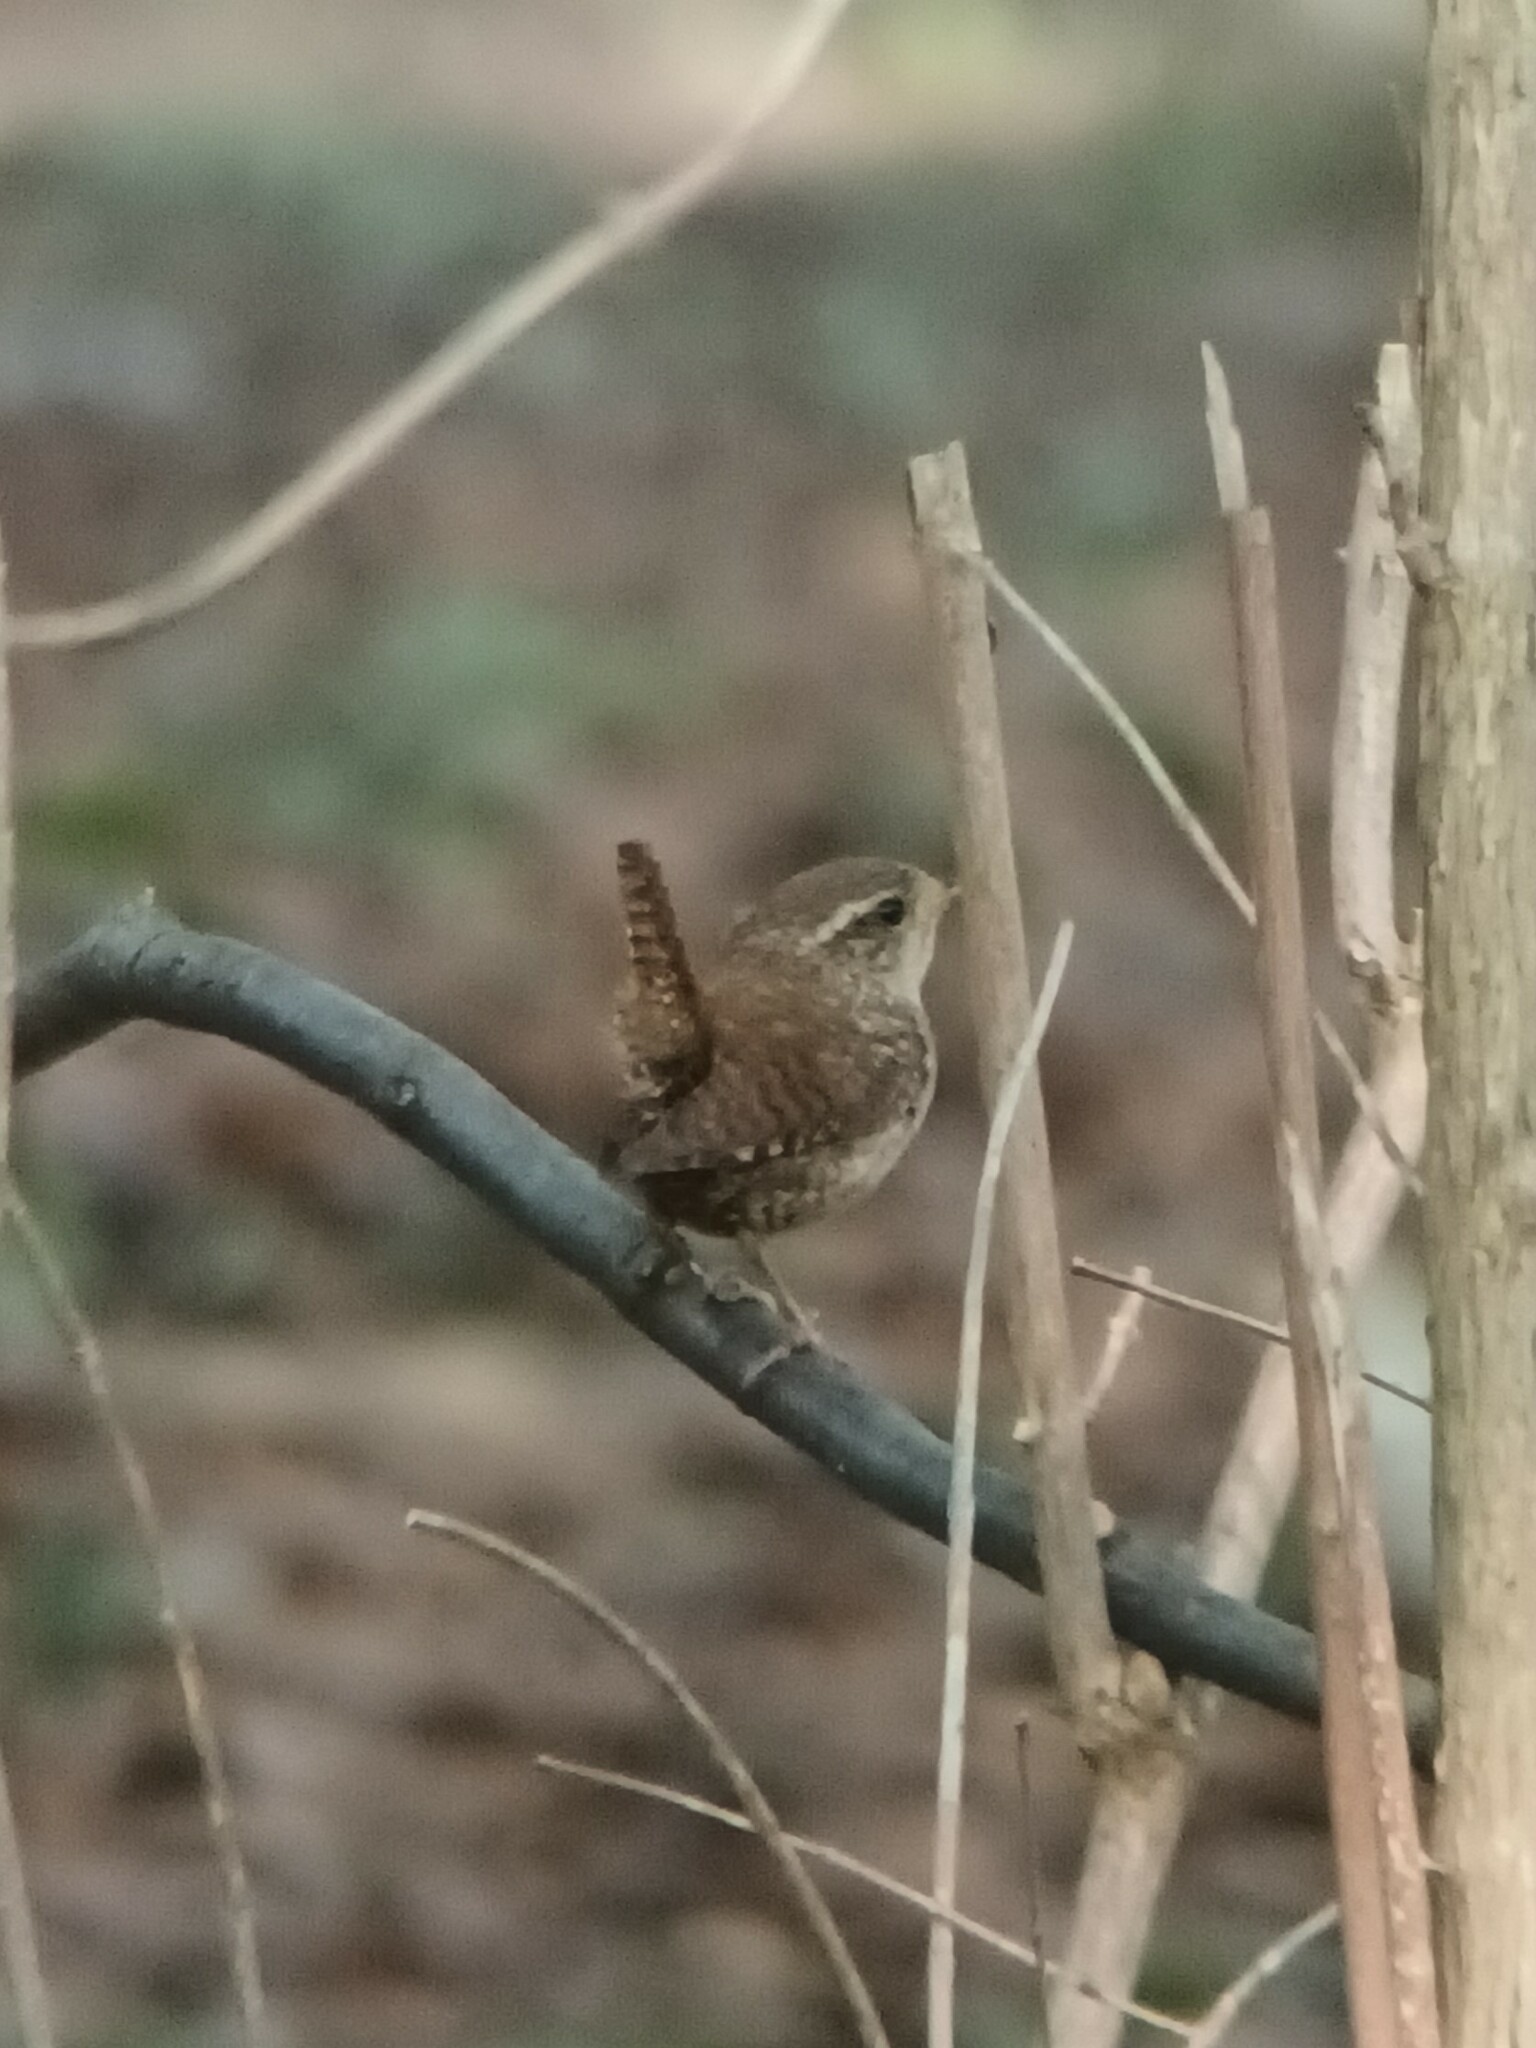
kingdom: Animalia
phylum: Chordata
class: Aves
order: Passeriformes
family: Troglodytidae
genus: Troglodytes
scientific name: Troglodytes troglodytes
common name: Eurasian wren
